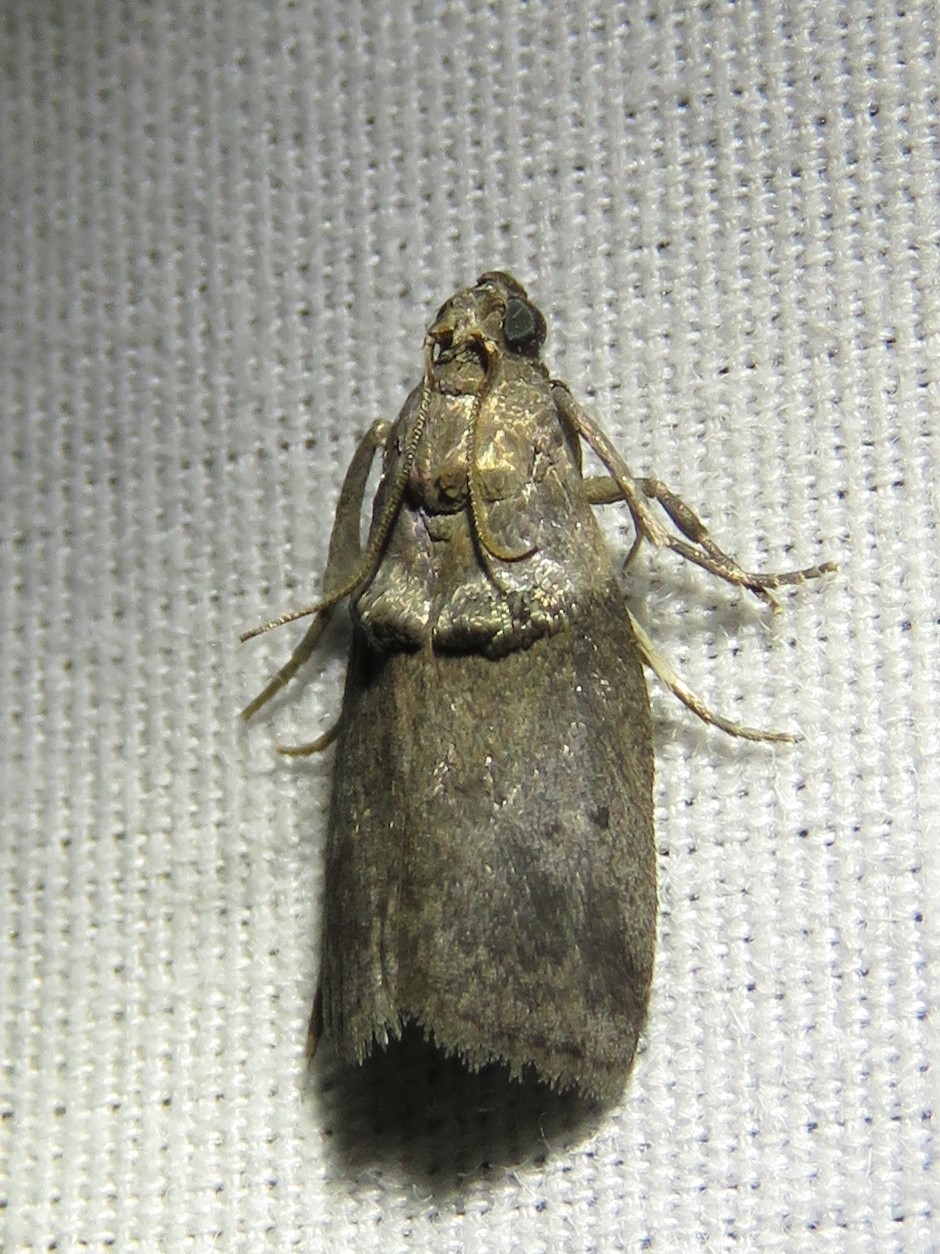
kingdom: Animalia
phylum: Arthropoda
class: Insecta
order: Lepidoptera
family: Pyralidae
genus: Acrobasis
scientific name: Acrobasis texana
